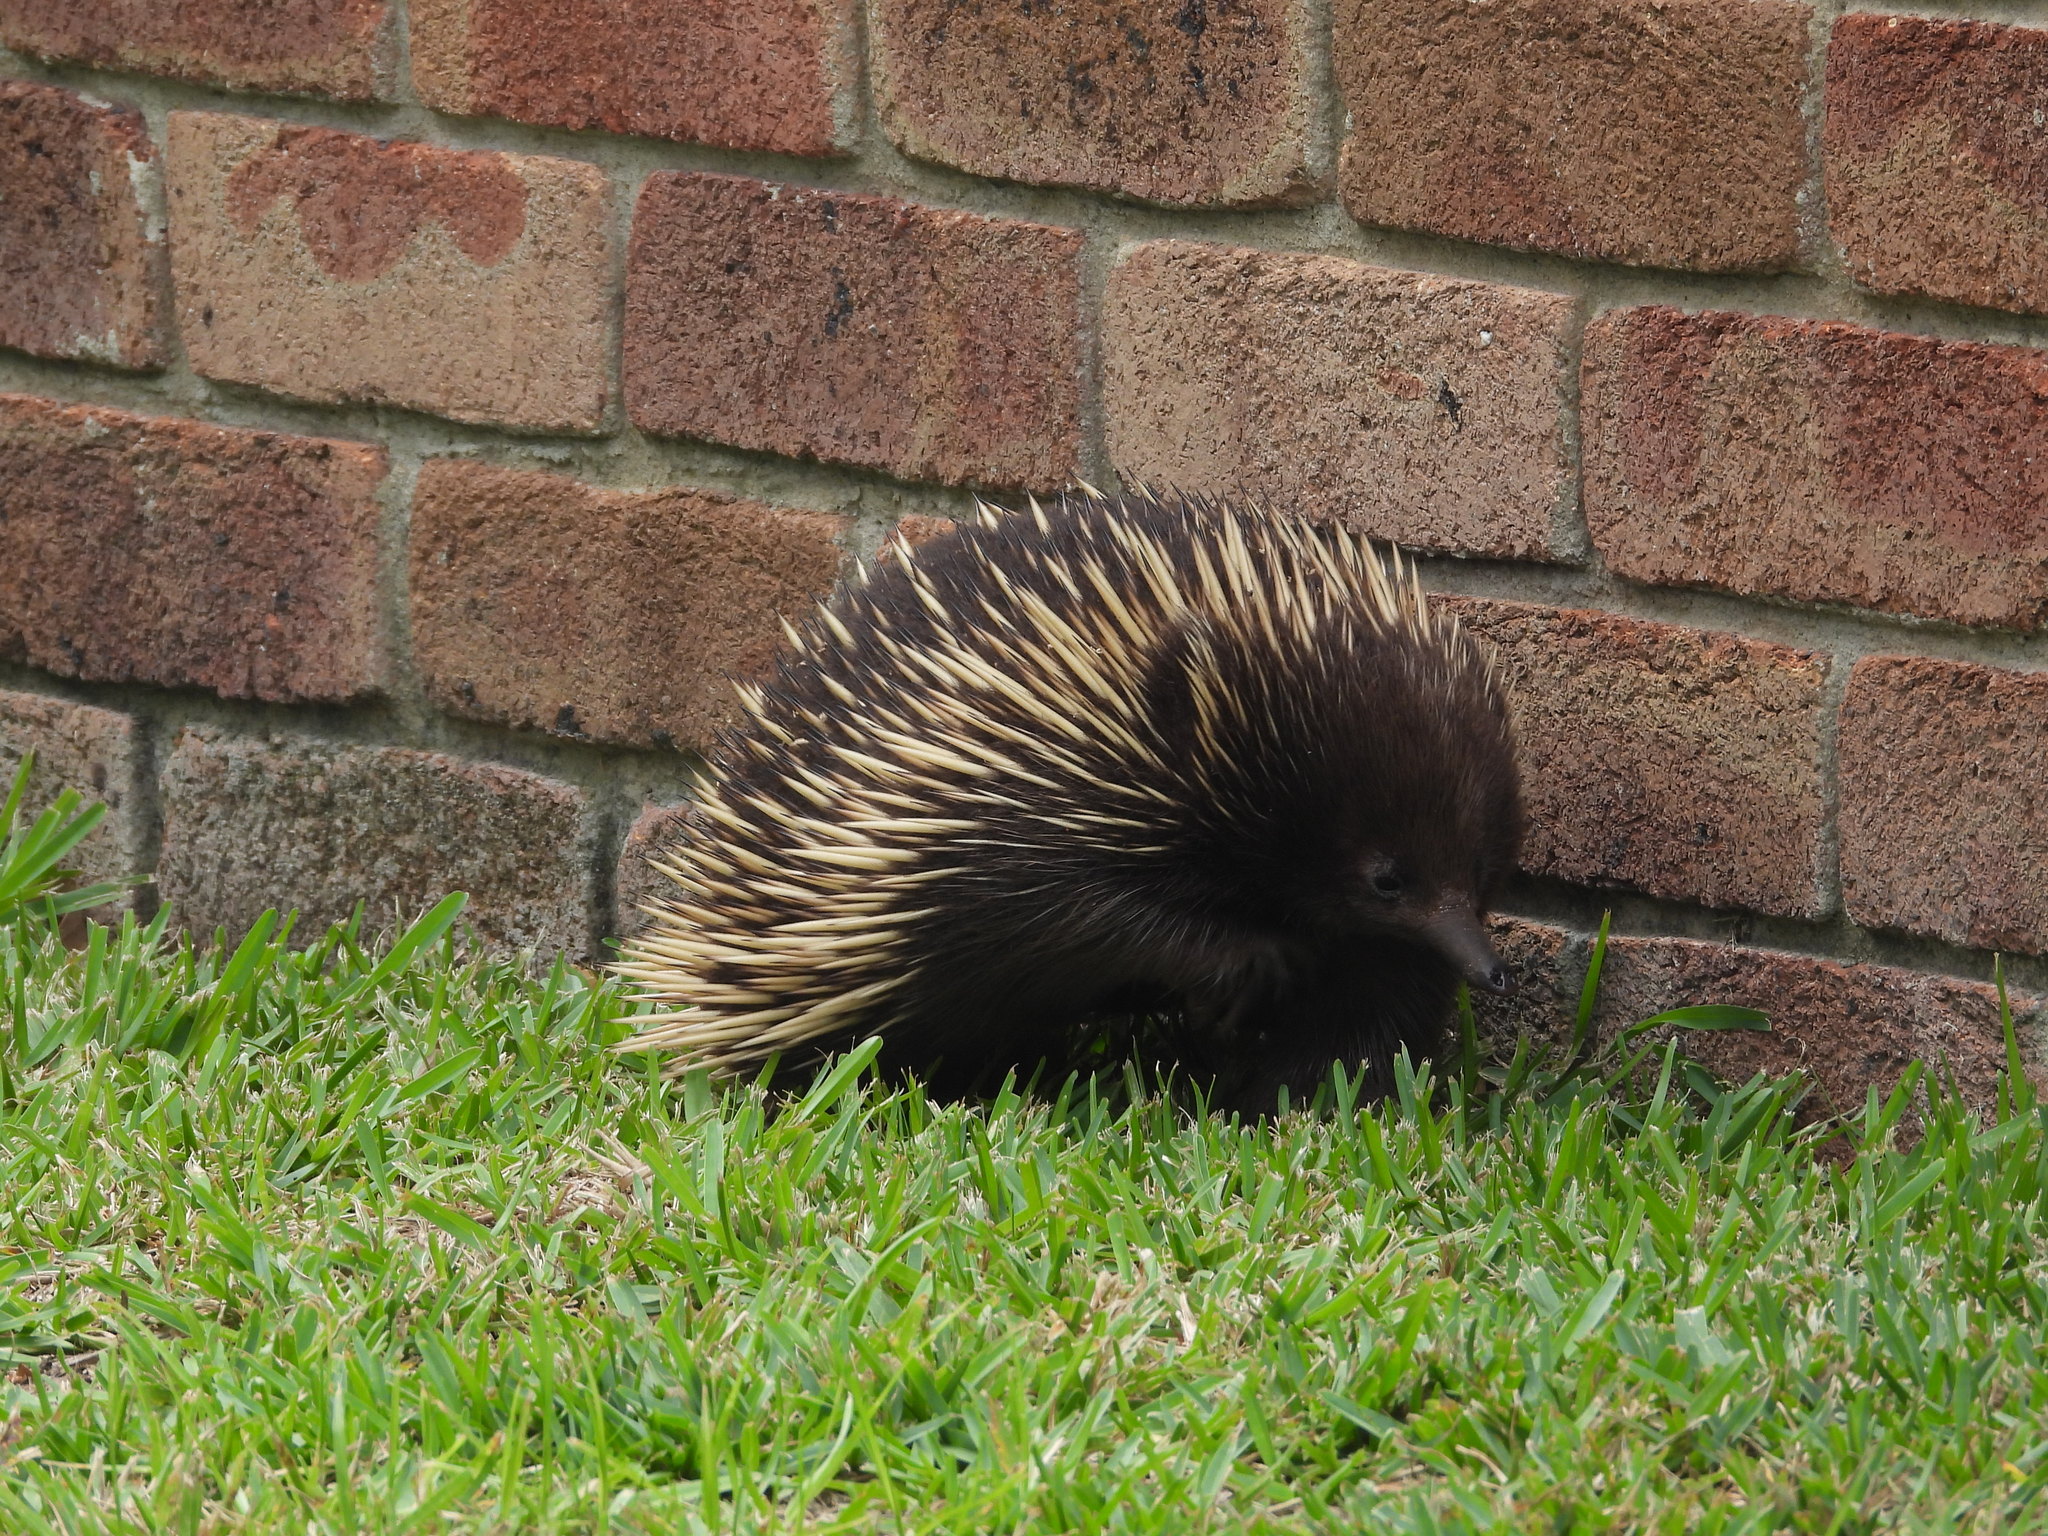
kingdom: Animalia
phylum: Chordata
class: Mammalia
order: Monotremata
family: Tachyglossidae
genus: Tachyglossus
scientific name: Tachyglossus aculeatus
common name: Short-beaked echidna
